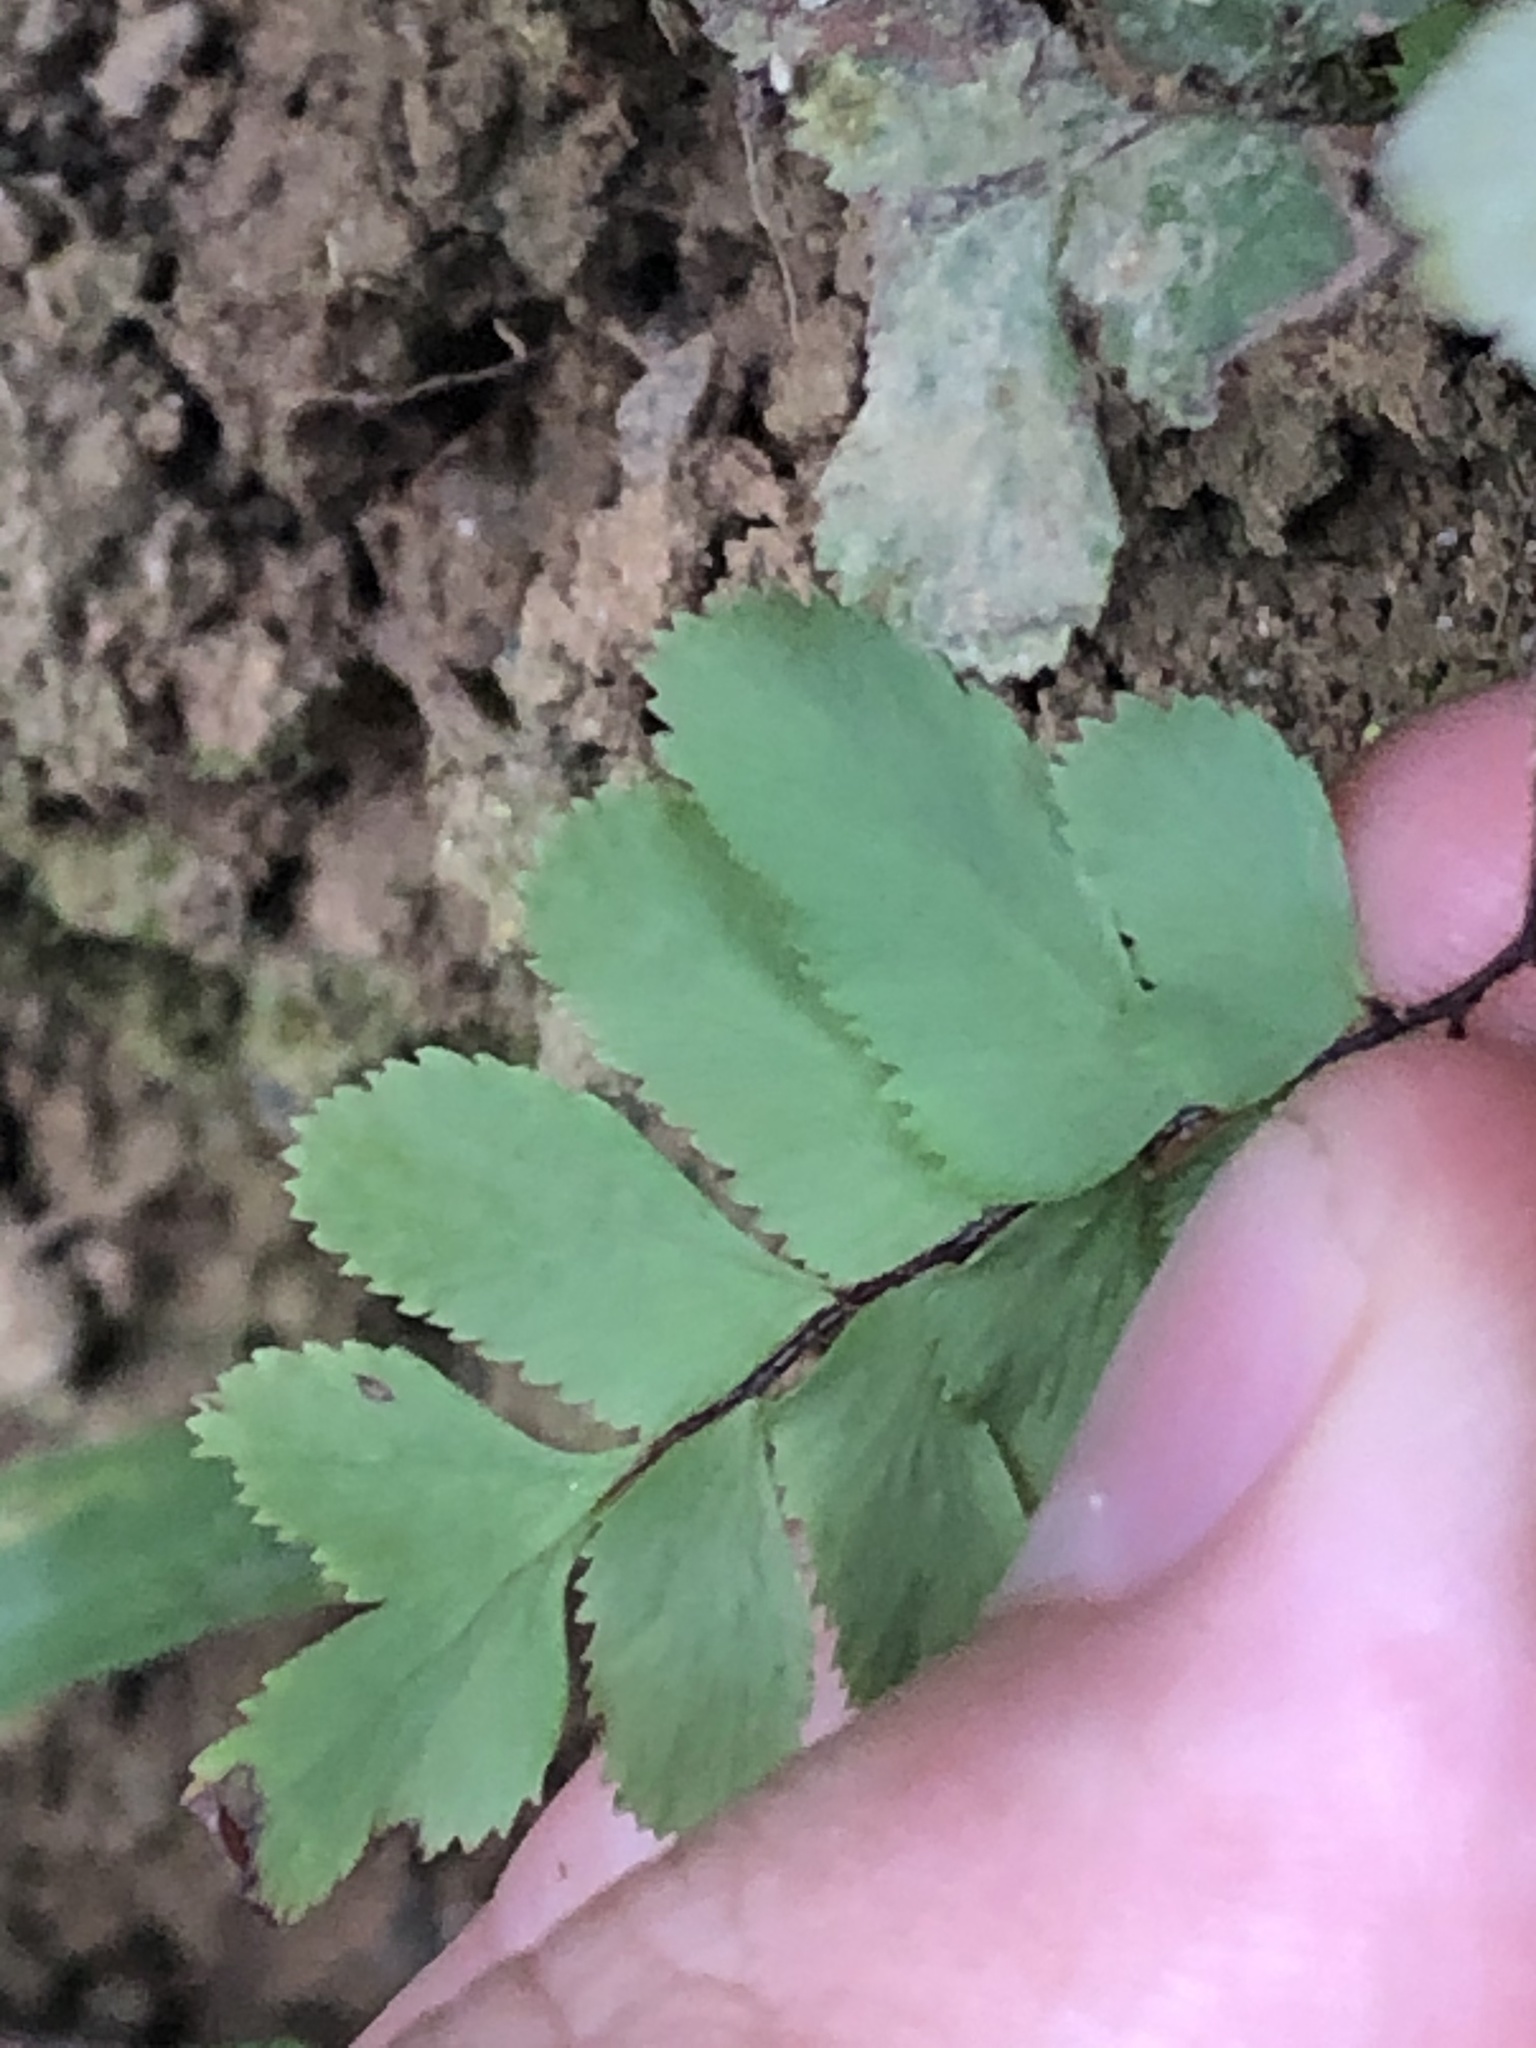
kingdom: Plantae
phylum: Tracheophyta
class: Polypodiopsida
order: Polypodiales
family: Pteridaceae
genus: Adiantum
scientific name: Adiantum tomentosum
